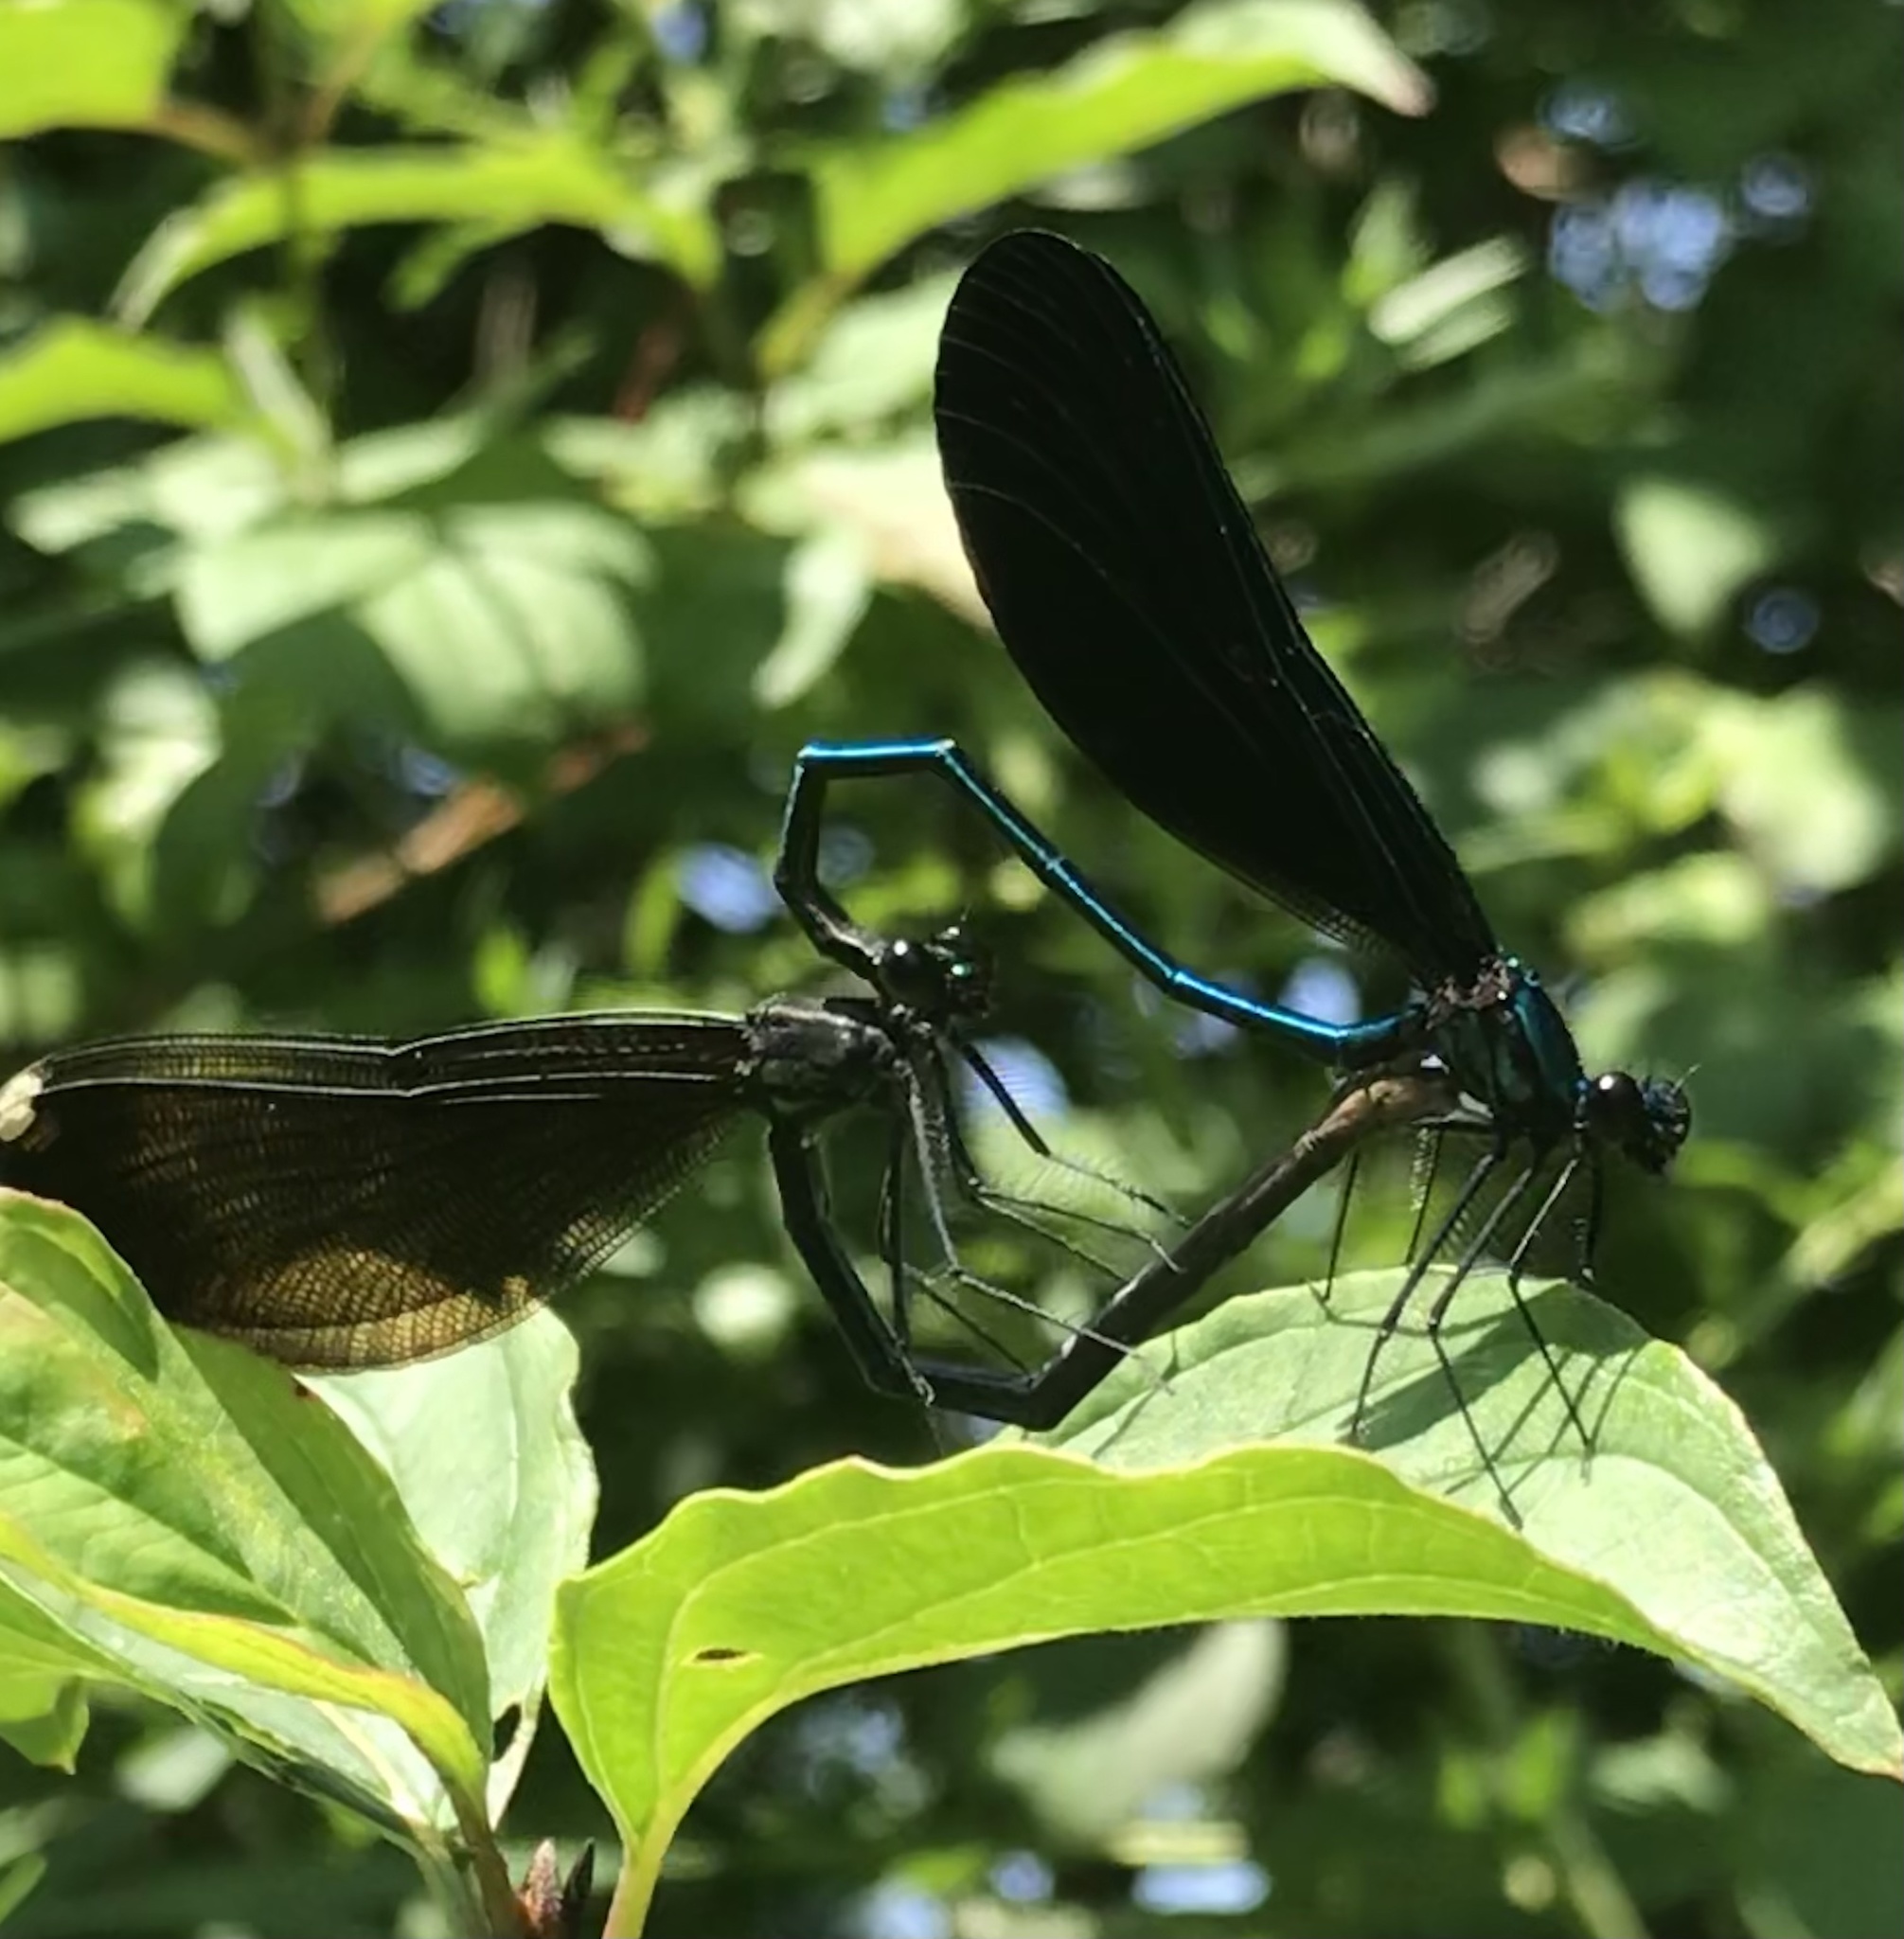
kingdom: Animalia
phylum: Arthropoda
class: Insecta
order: Odonata
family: Calopterygidae
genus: Calopteryx
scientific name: Calopteryx maculata
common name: Ebony jewelwing
